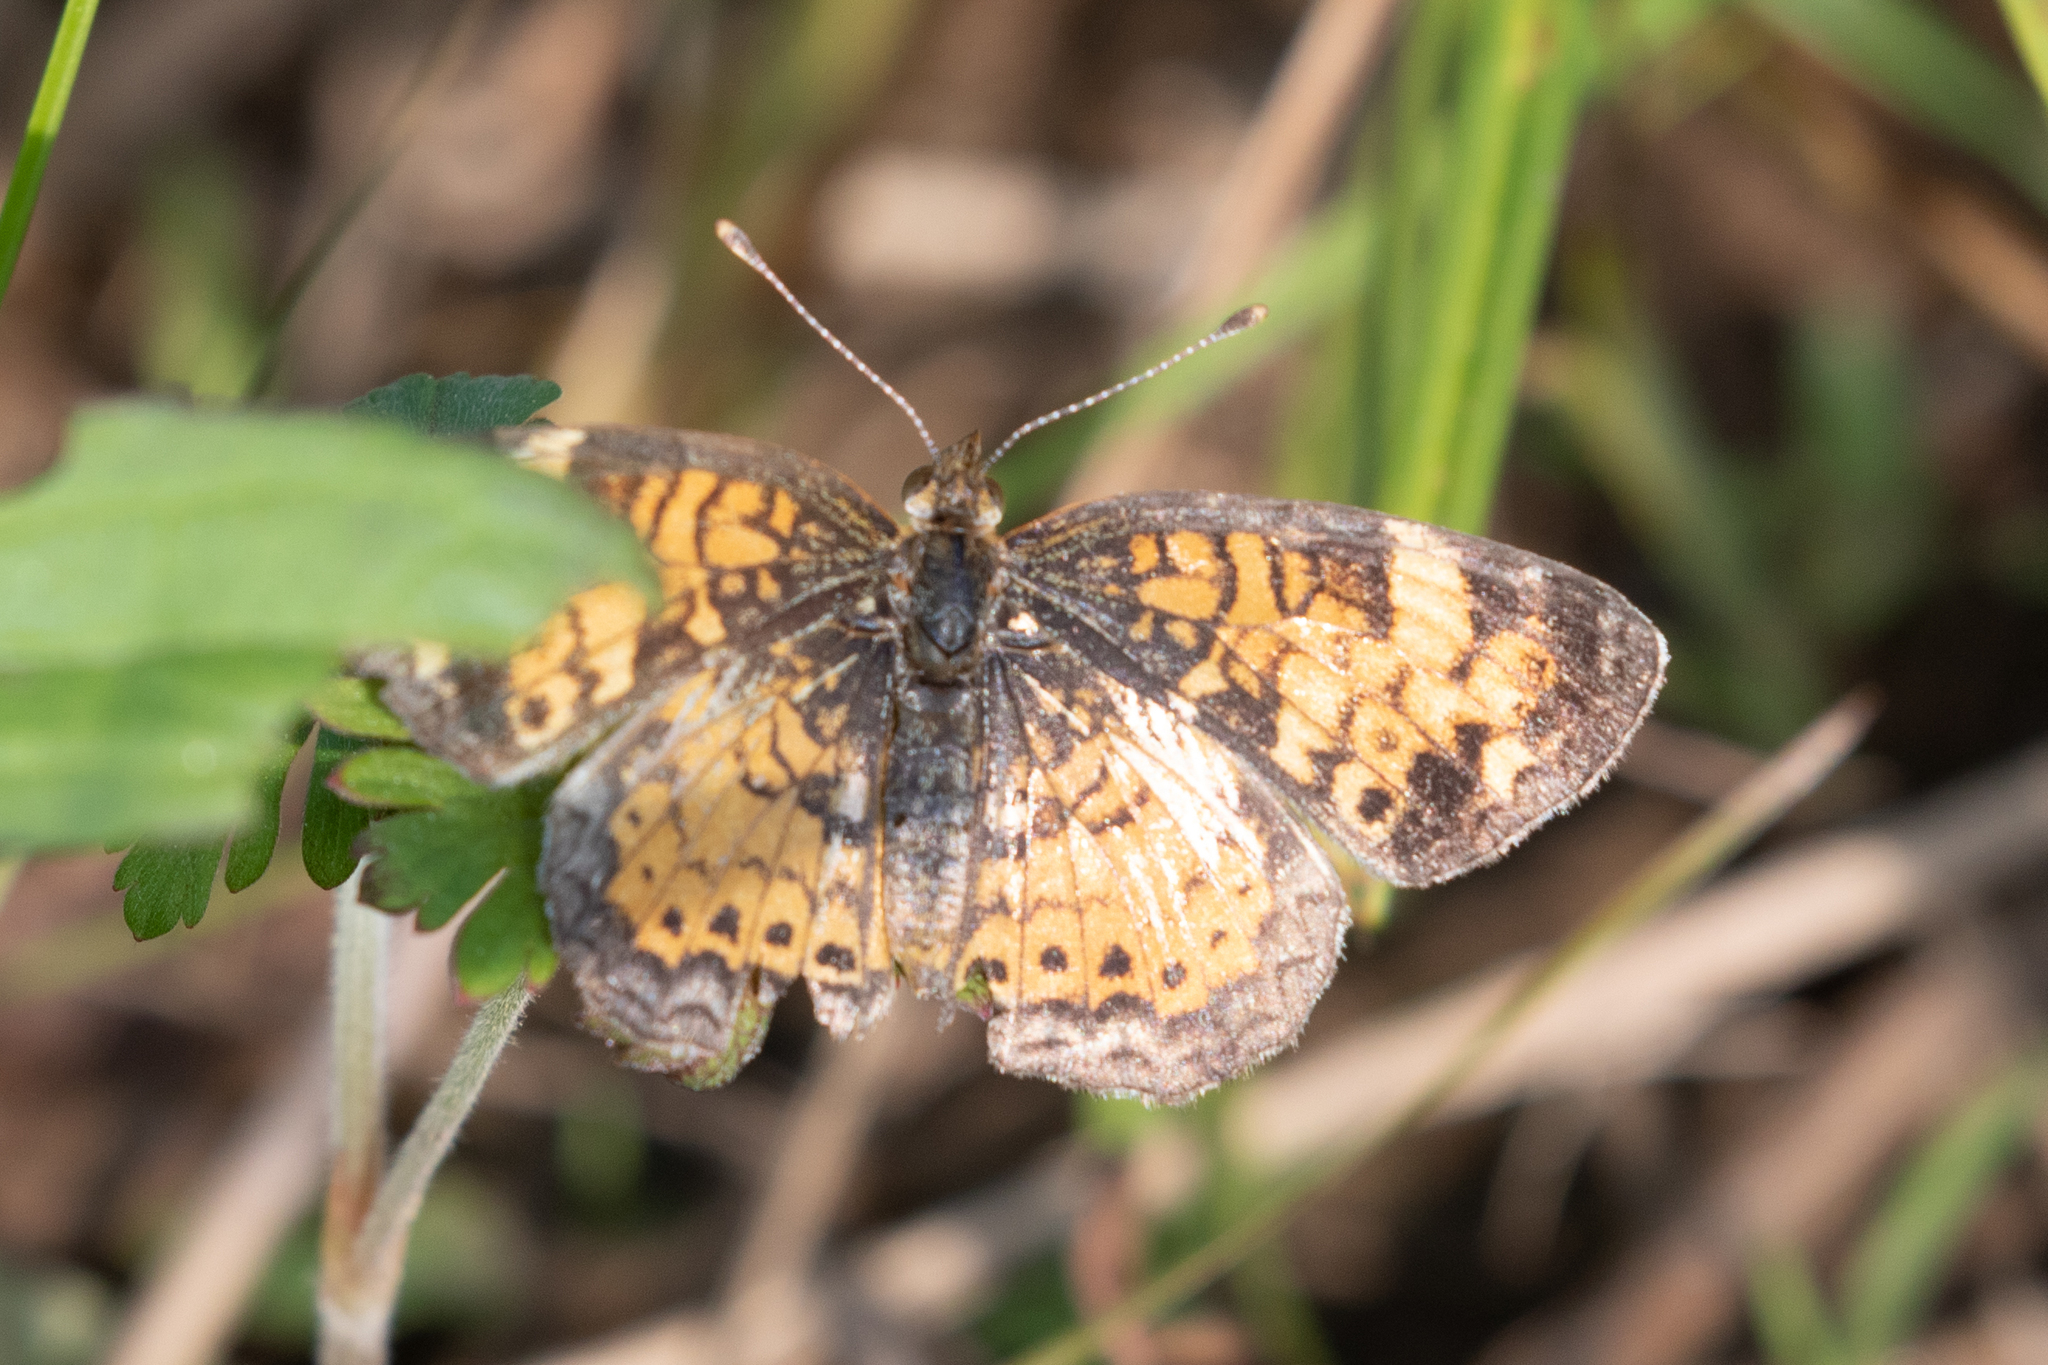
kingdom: Animalia
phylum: Arthropoda
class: Insecta
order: Lepidoptera
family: Nymphalidae
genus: Phyciodes
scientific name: Phyciodes tharos
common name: Pearl crescent
